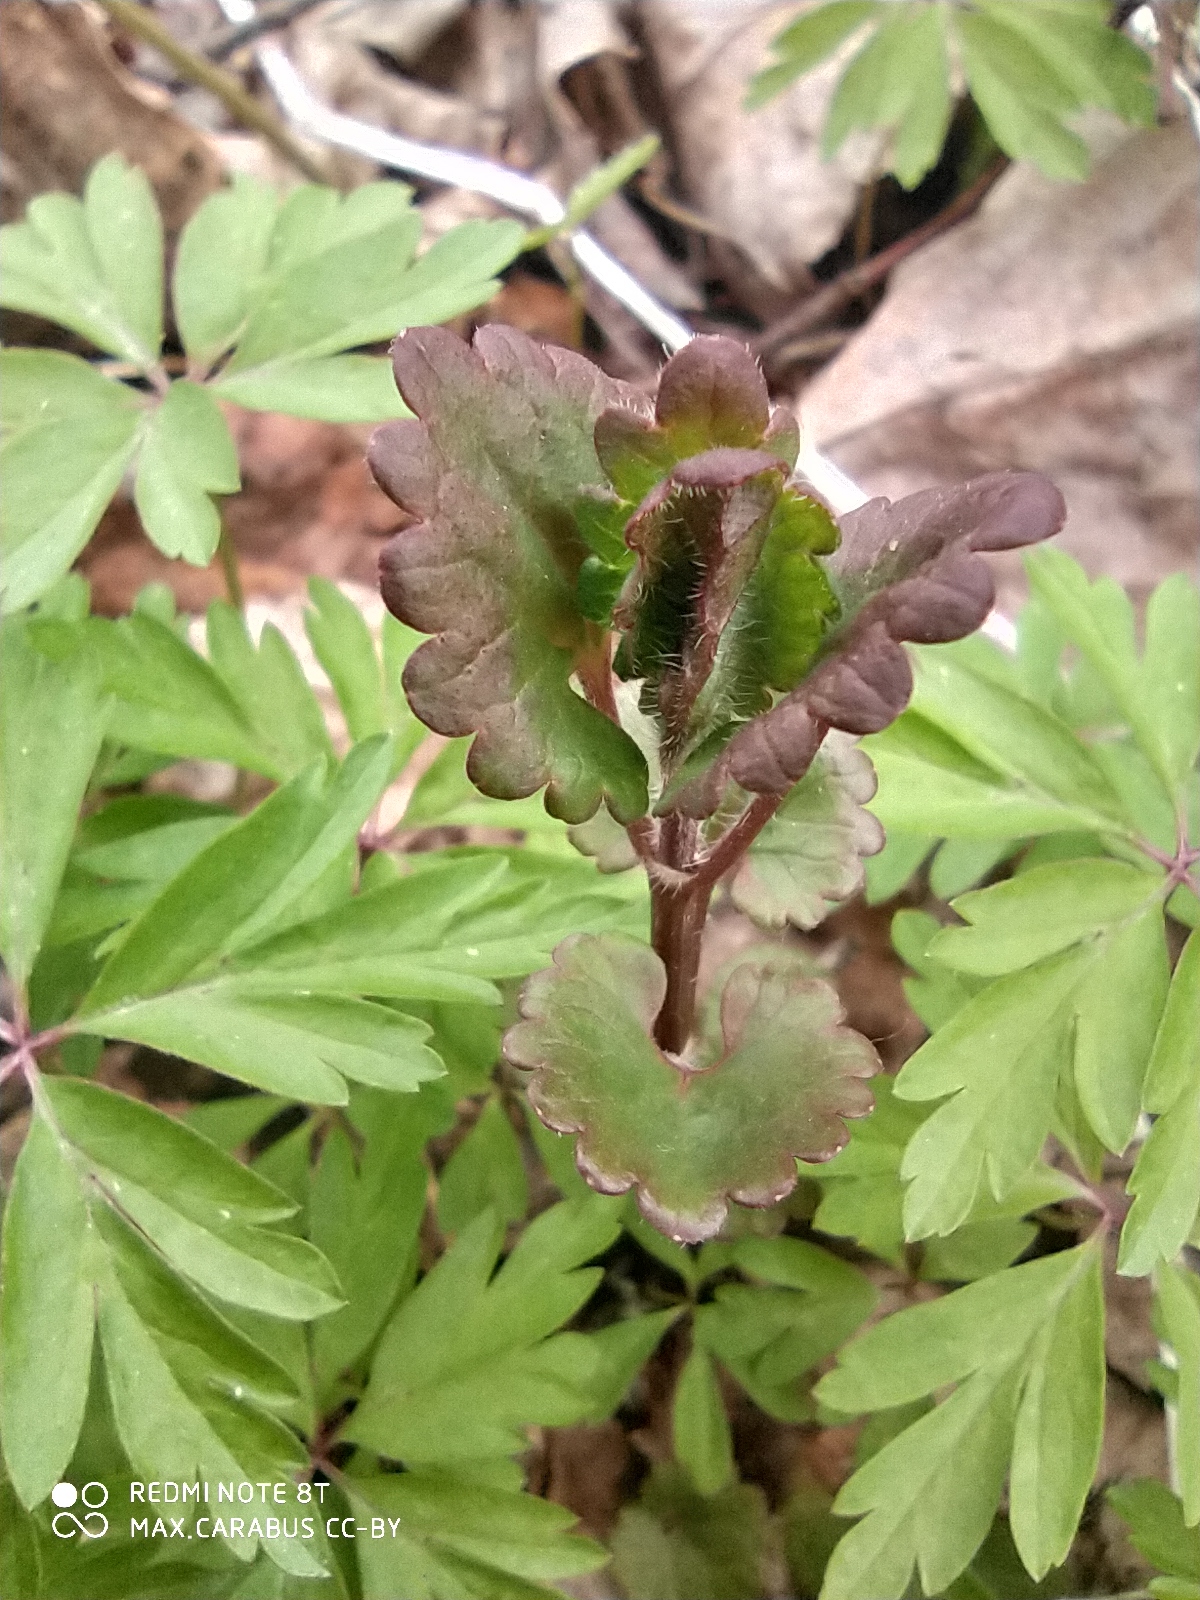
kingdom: Plantae
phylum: Tracheophyta
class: Magnoliopsida
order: Lamiales
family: Lamiaceae
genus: Glechoma
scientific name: Glechoma hederacea
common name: Ground ivy
